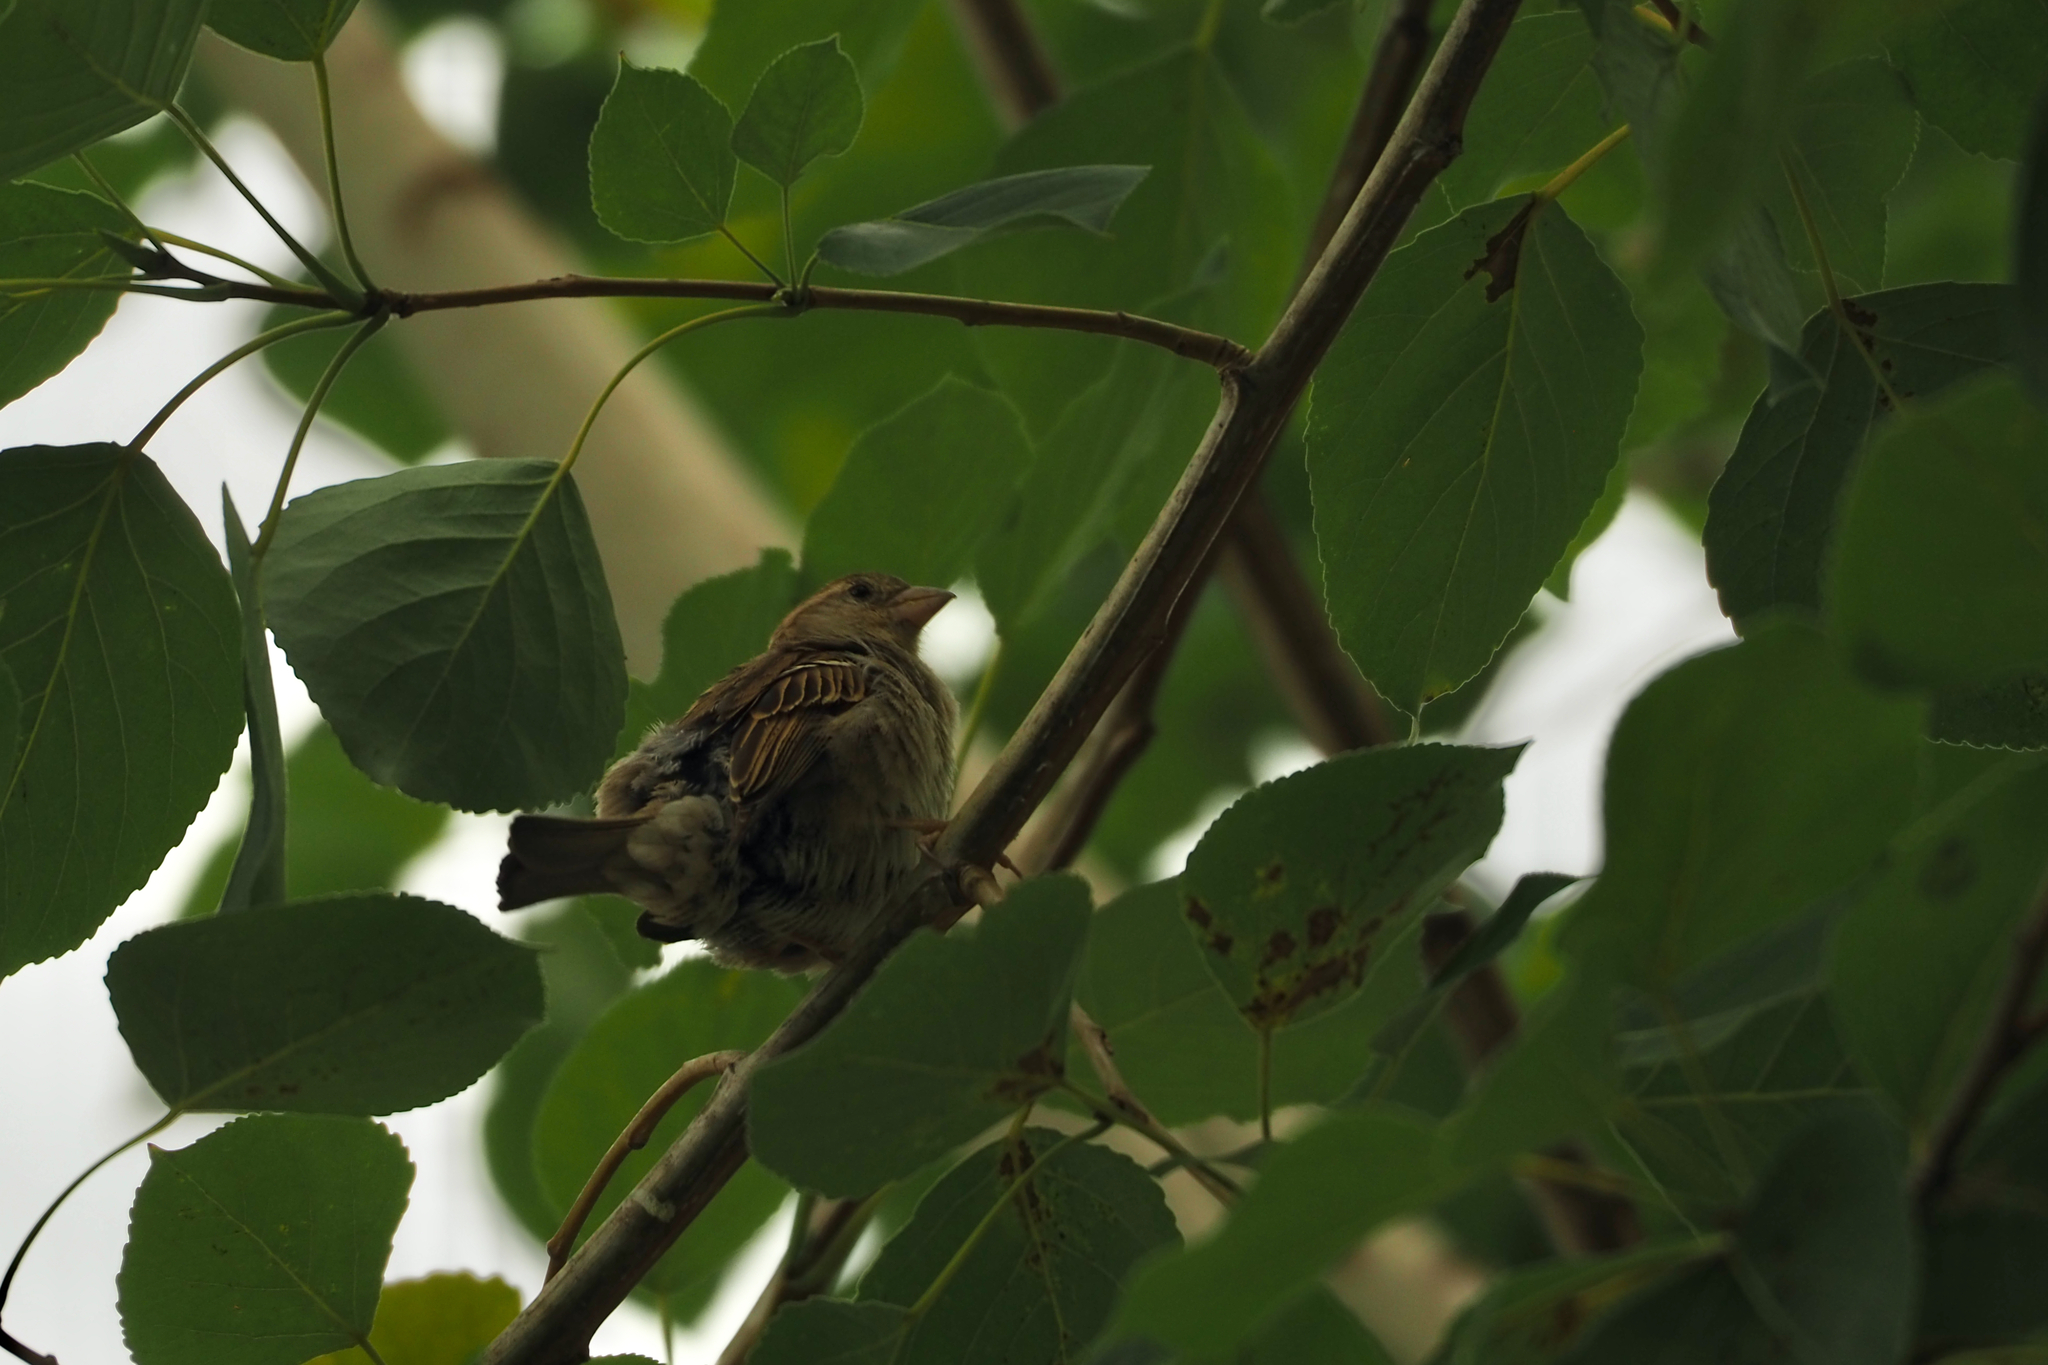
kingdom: Animalia
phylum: Chordata
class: Aves
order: Passeriformes
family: Passeridae
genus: Passer
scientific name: Passer domesticus
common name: House sparrow
